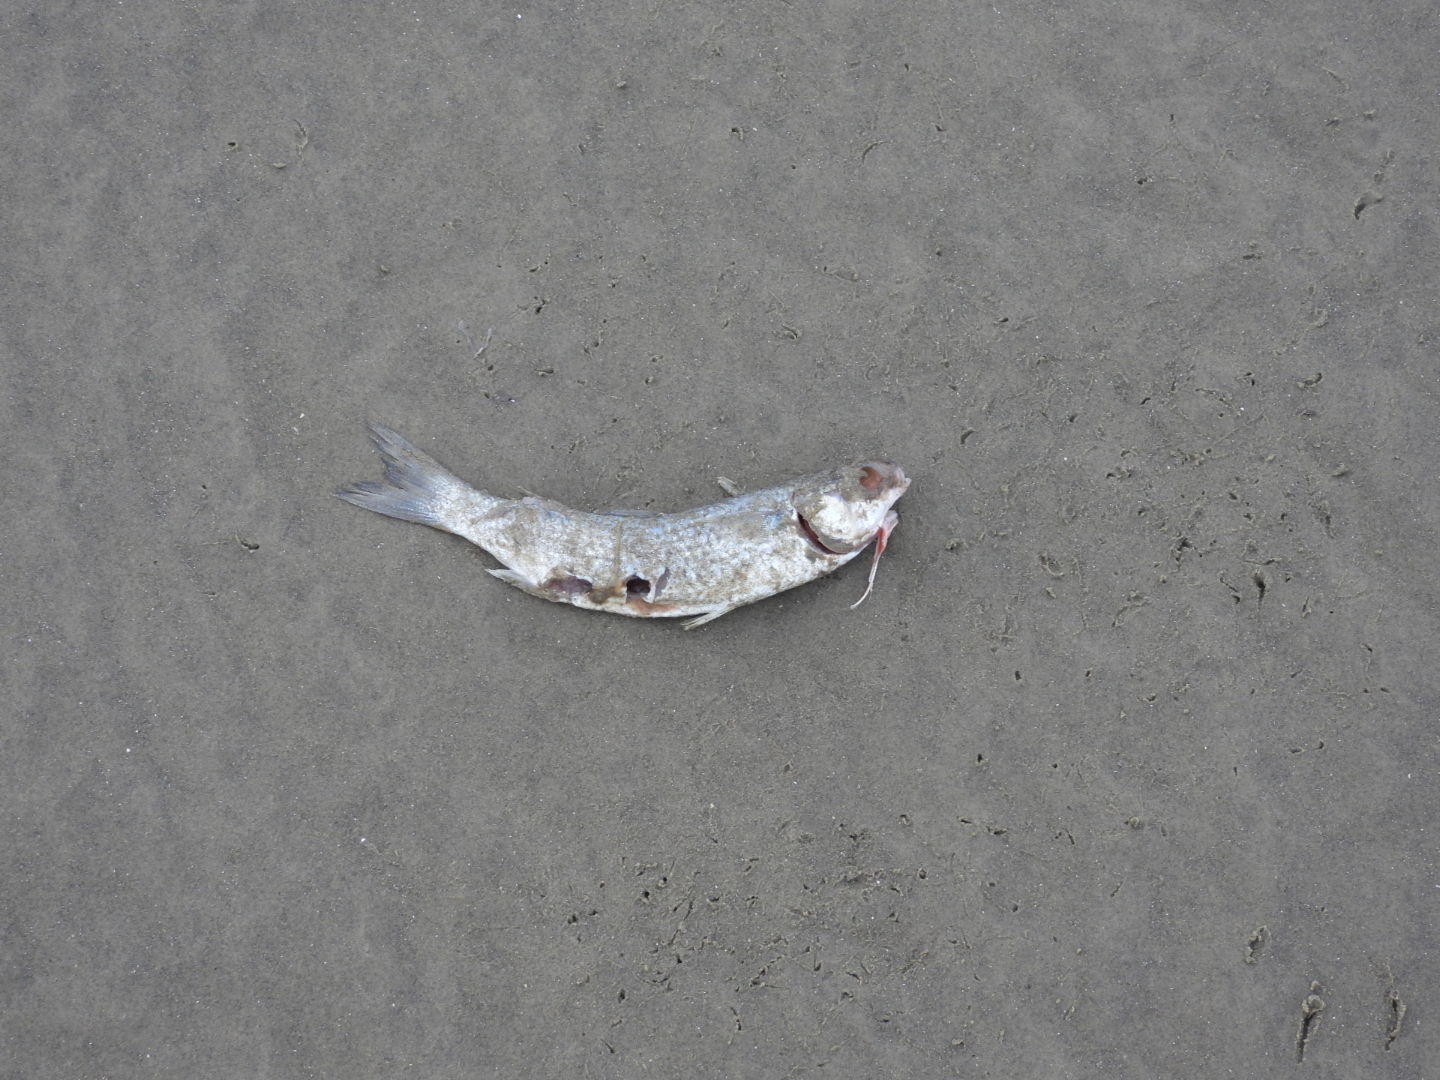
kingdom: Animalia
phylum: Chordata
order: Mugiliformes
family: Mugilidae
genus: Mugil
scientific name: Mugil cephalus
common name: Grey mullet
